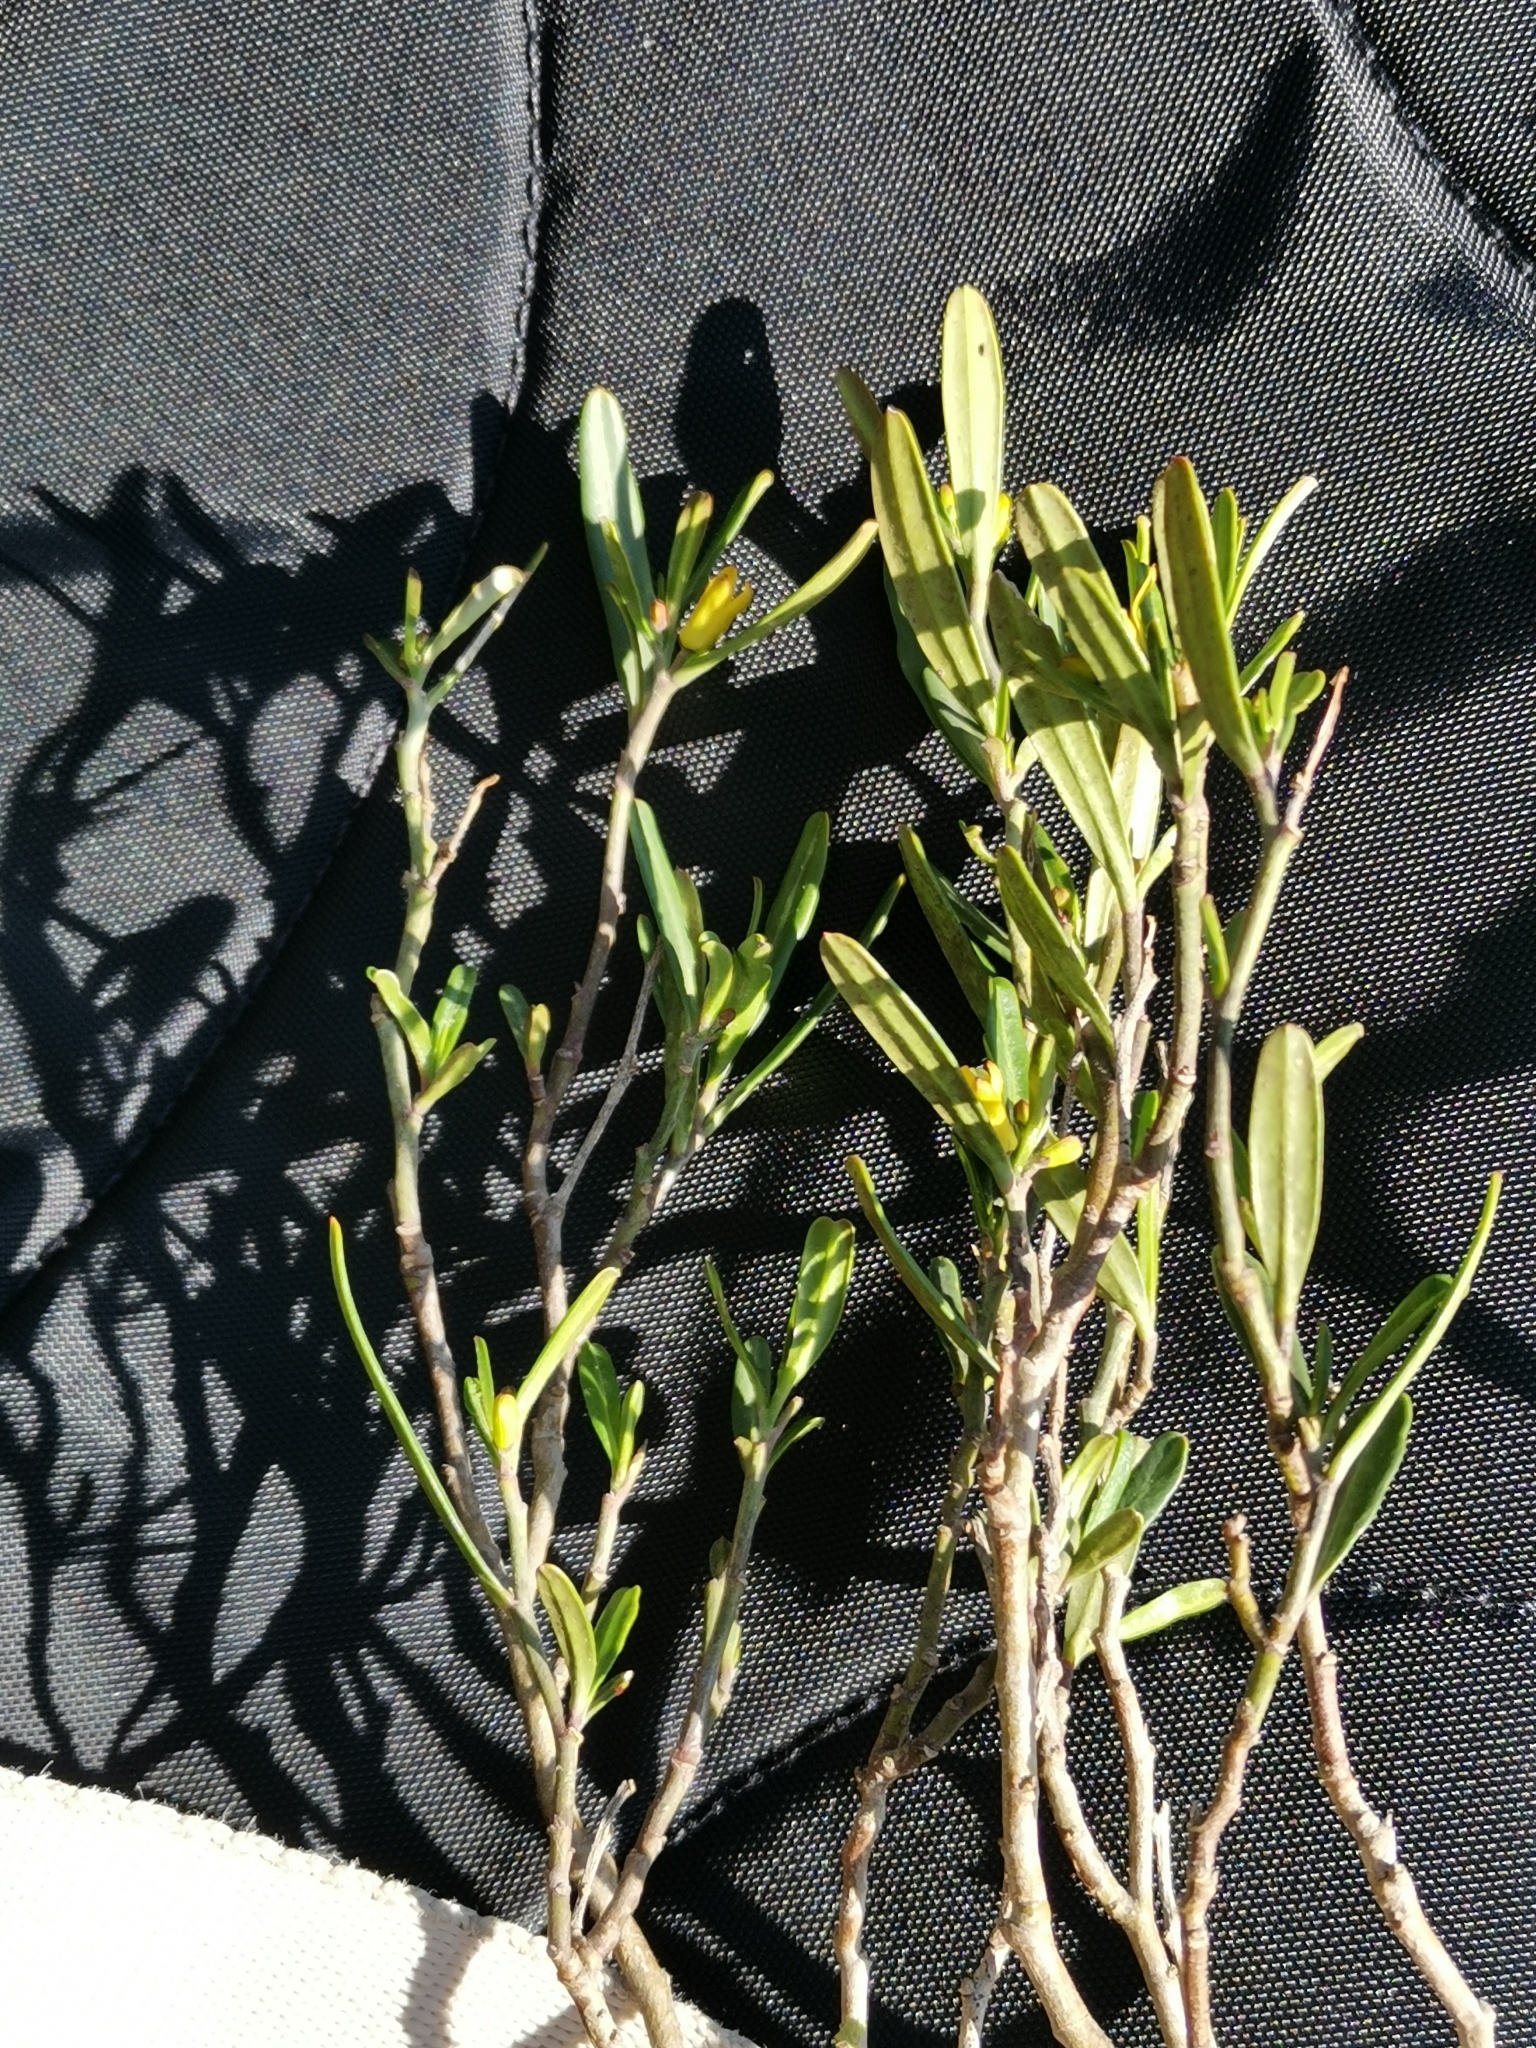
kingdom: Plantae
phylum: Tracheophyta
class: Magnoliopsida
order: Sapindales
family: Rutaceae
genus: Cneorum
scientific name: Cneorum tricoccon
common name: Spurge olive
